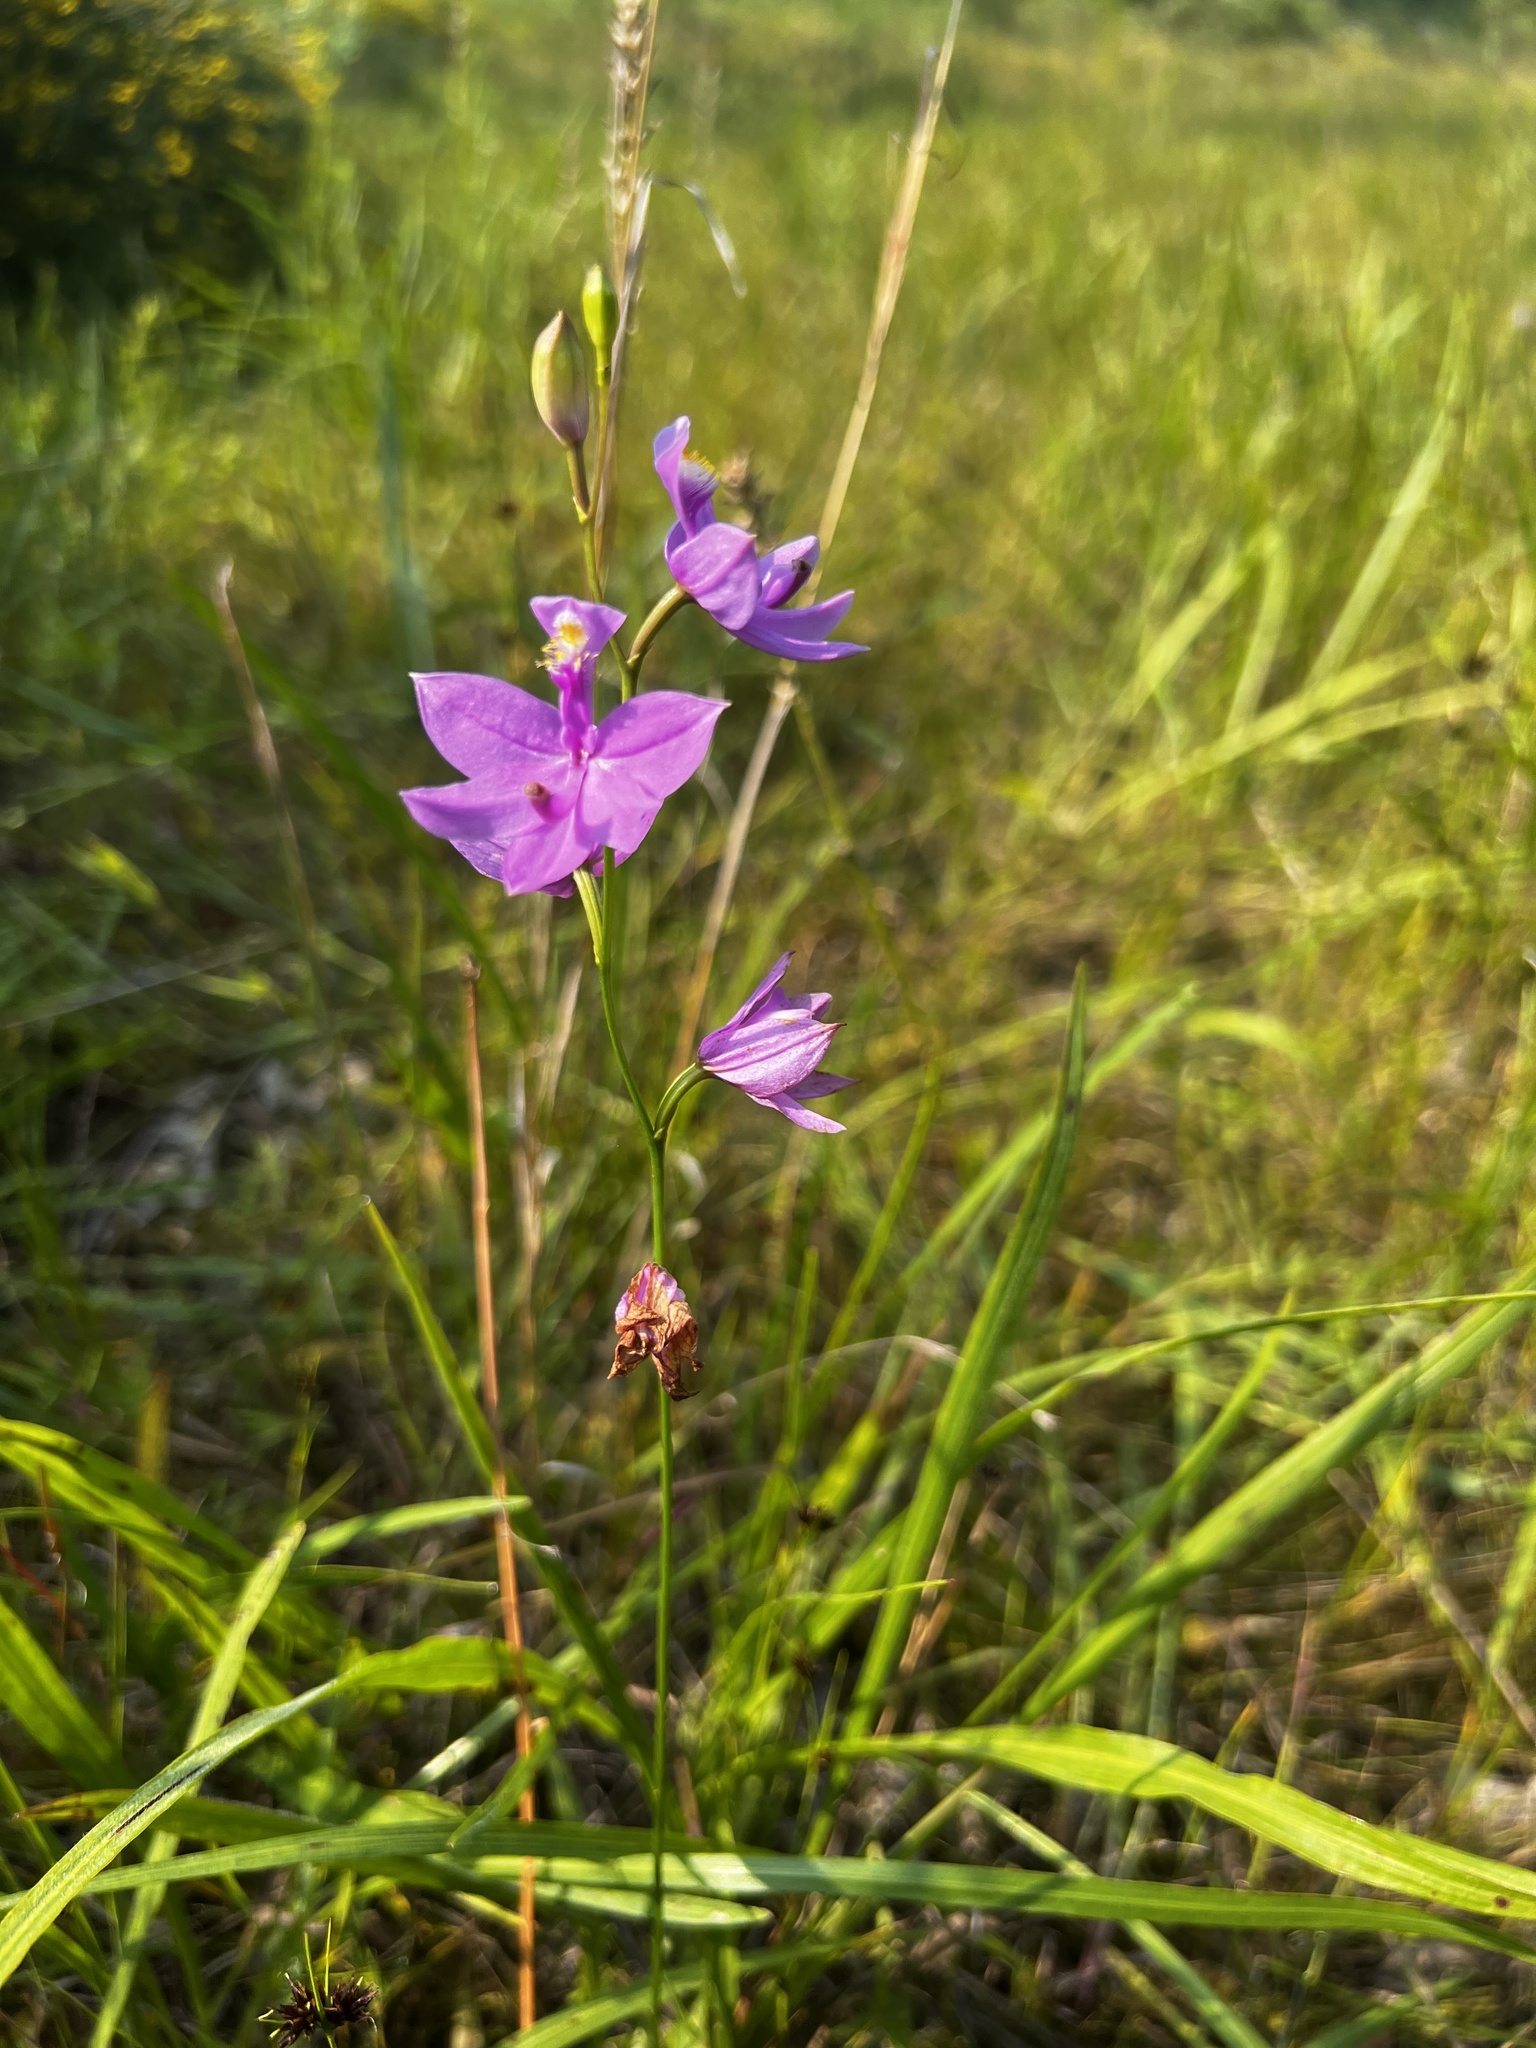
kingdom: Plantae
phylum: Tracheophyta
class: Liliopsida
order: Asparagales
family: Orchidaceae
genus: Calopogon
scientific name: Calopogon tuberosus
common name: Grass-pink
